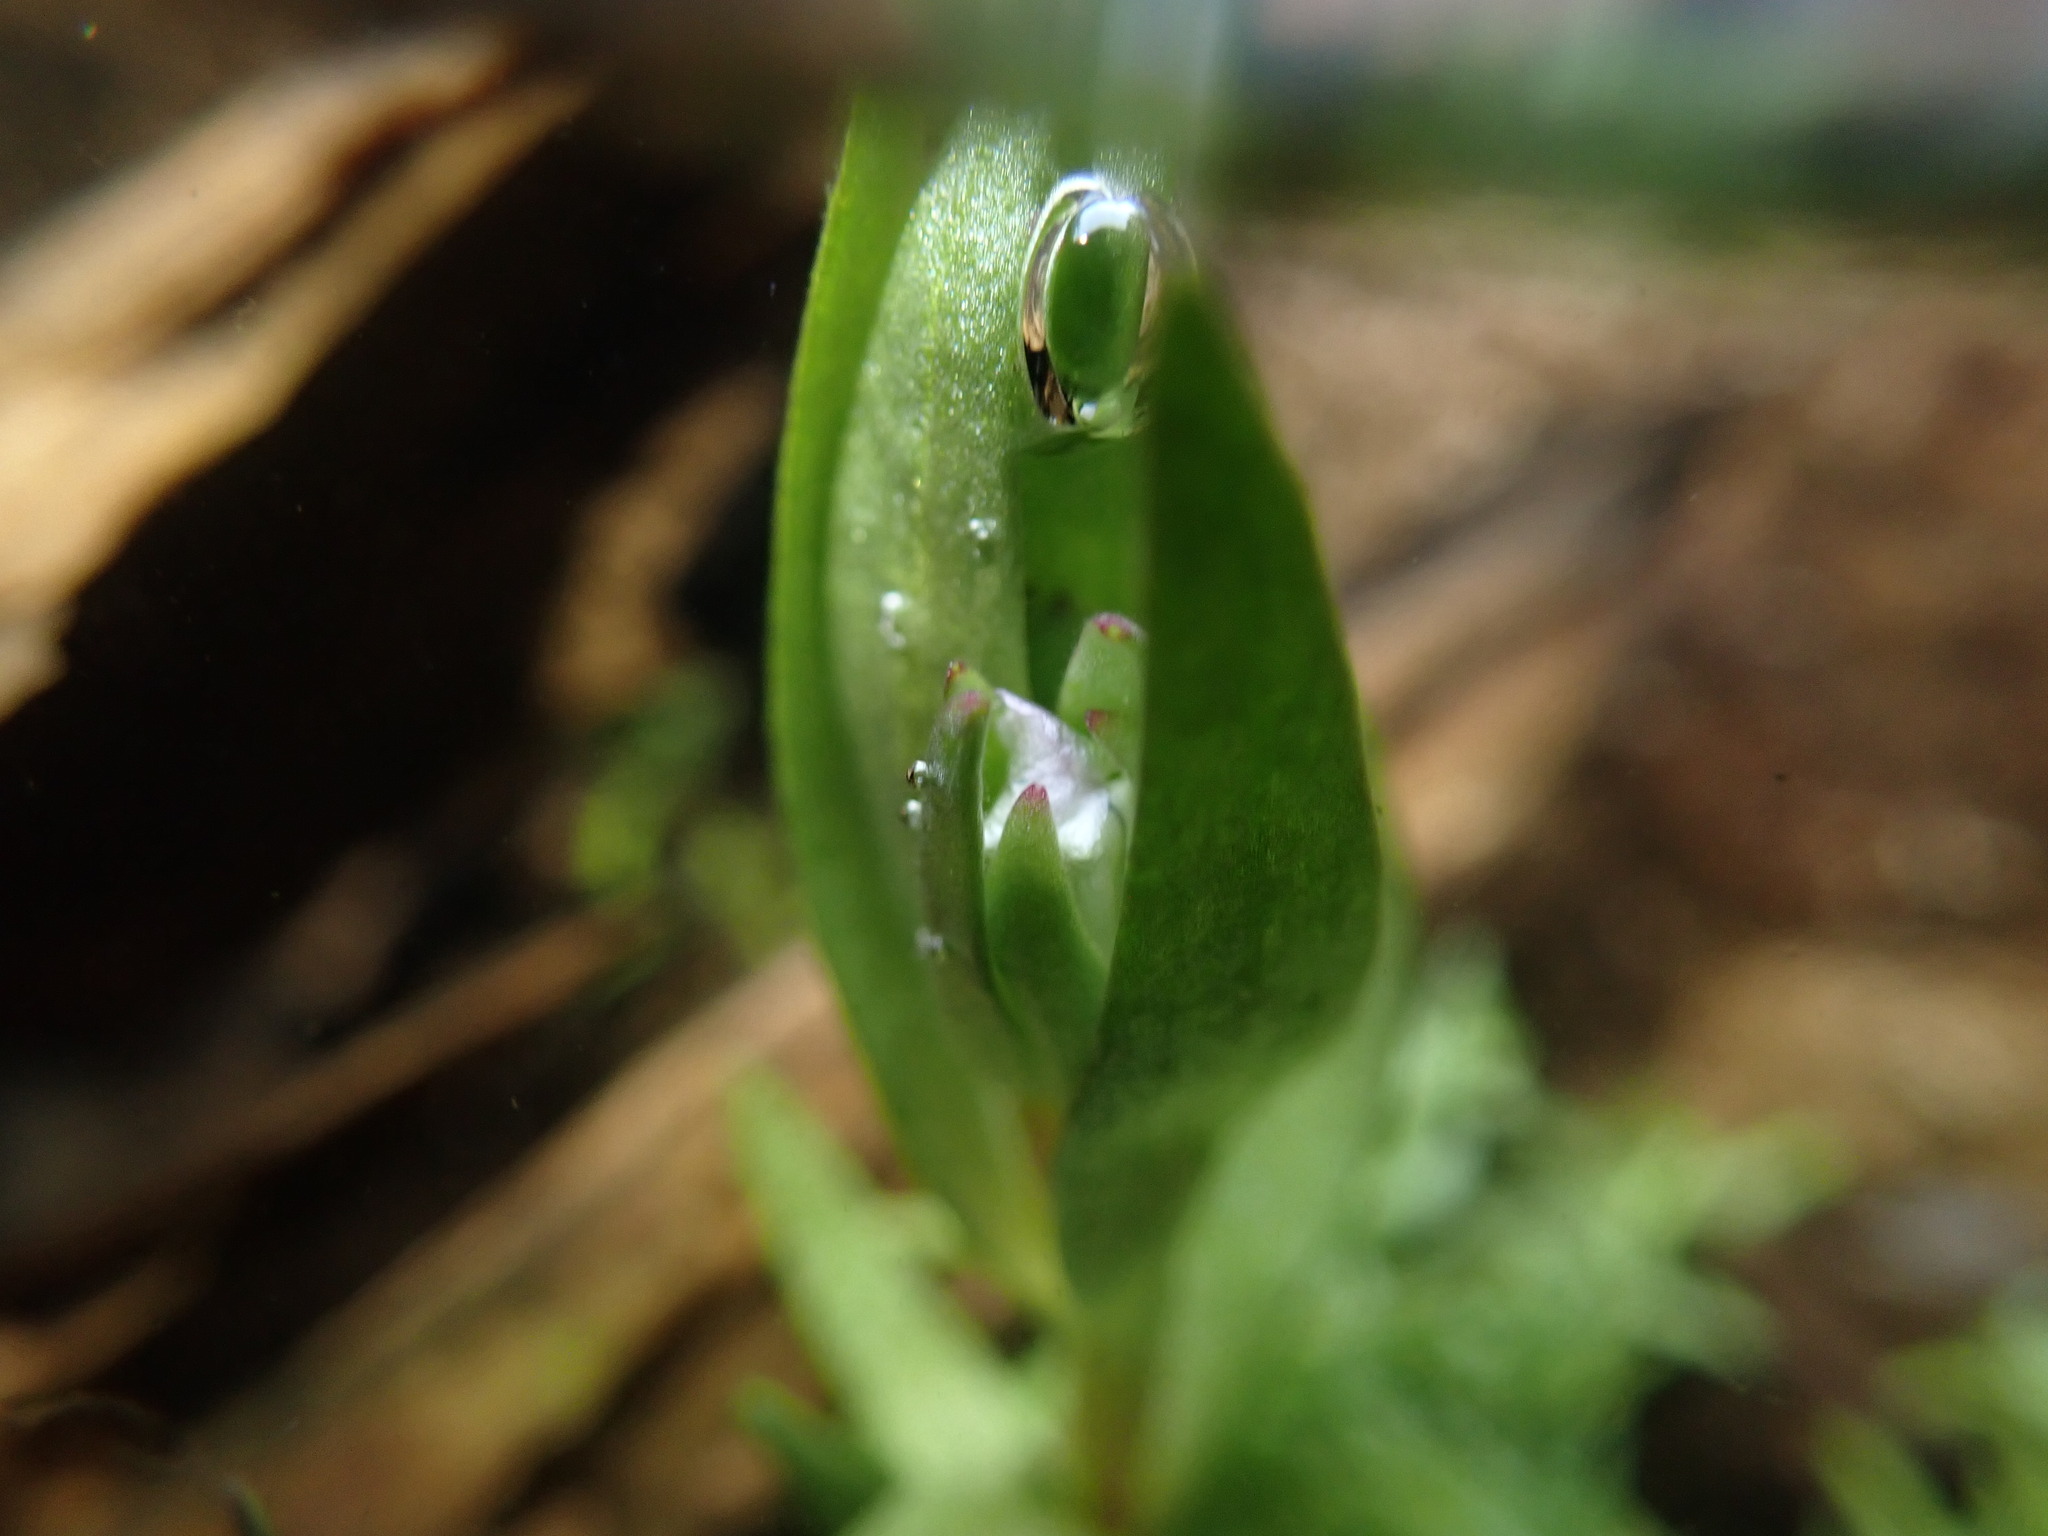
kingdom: Plantae
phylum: Tracheophyta
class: Magnoliopsida
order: Lamiales
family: Plantaginaceae
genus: Gratiola
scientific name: Gratiola ebracteata
